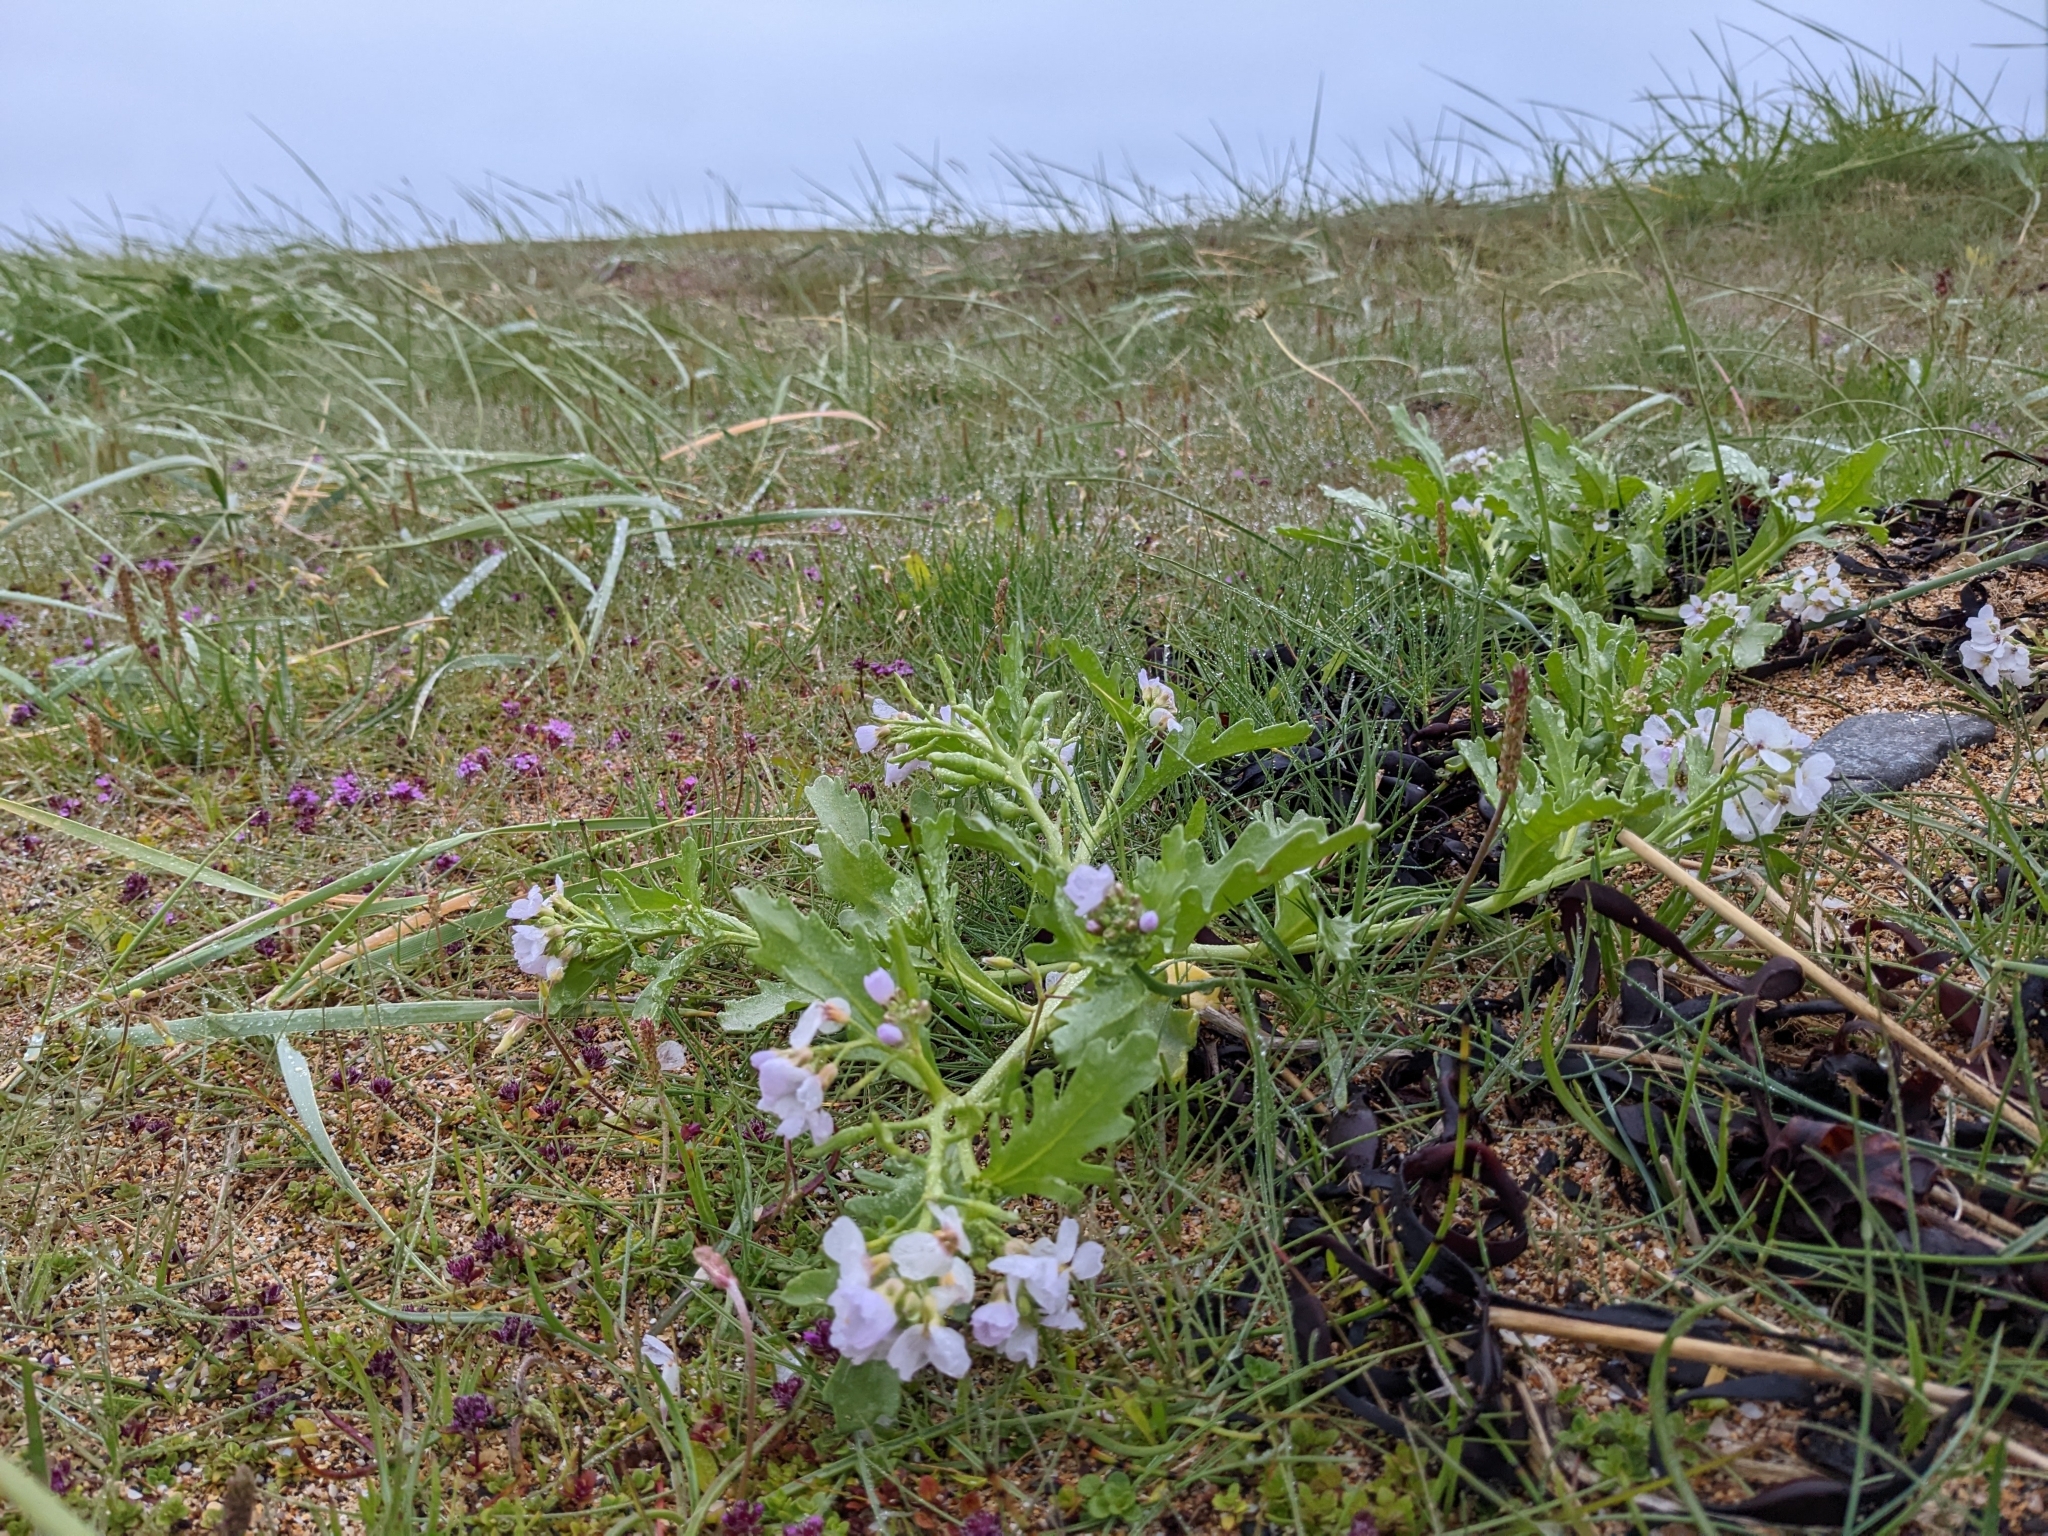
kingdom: Plantae
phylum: Tracheophyta
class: Magnoliopsida
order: Brassicales
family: Brassicaceae
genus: Cakile
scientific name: Cakile arctica
